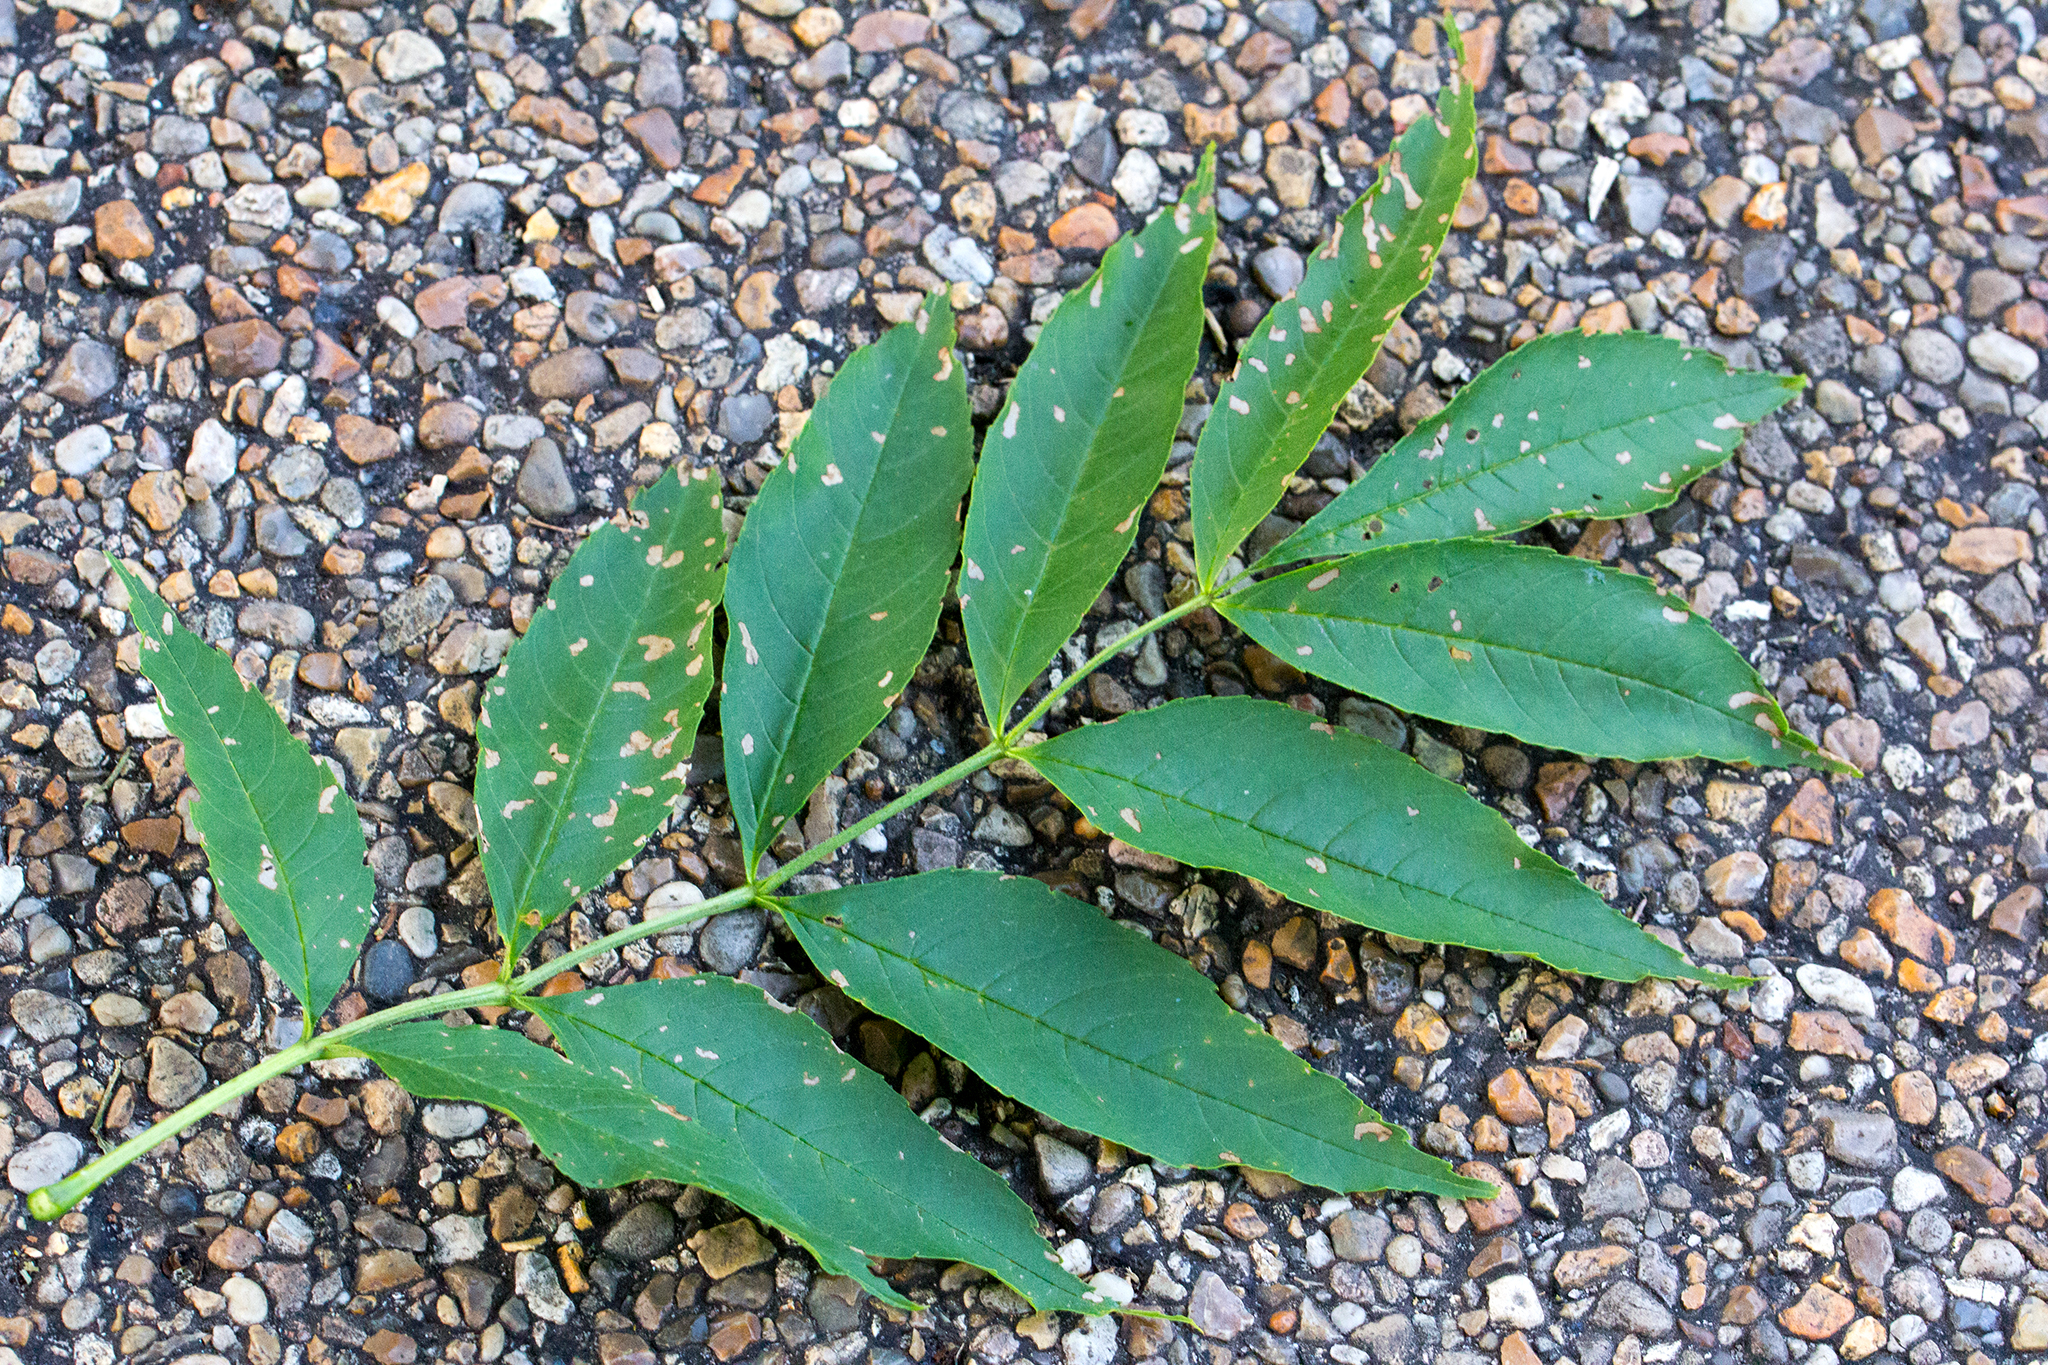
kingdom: Plantae
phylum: Tracheophyta
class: Magnoliopsida
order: Lamiales
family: Oleaceae
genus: Fraxinus
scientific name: Fraxinus excelsior
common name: European ash
